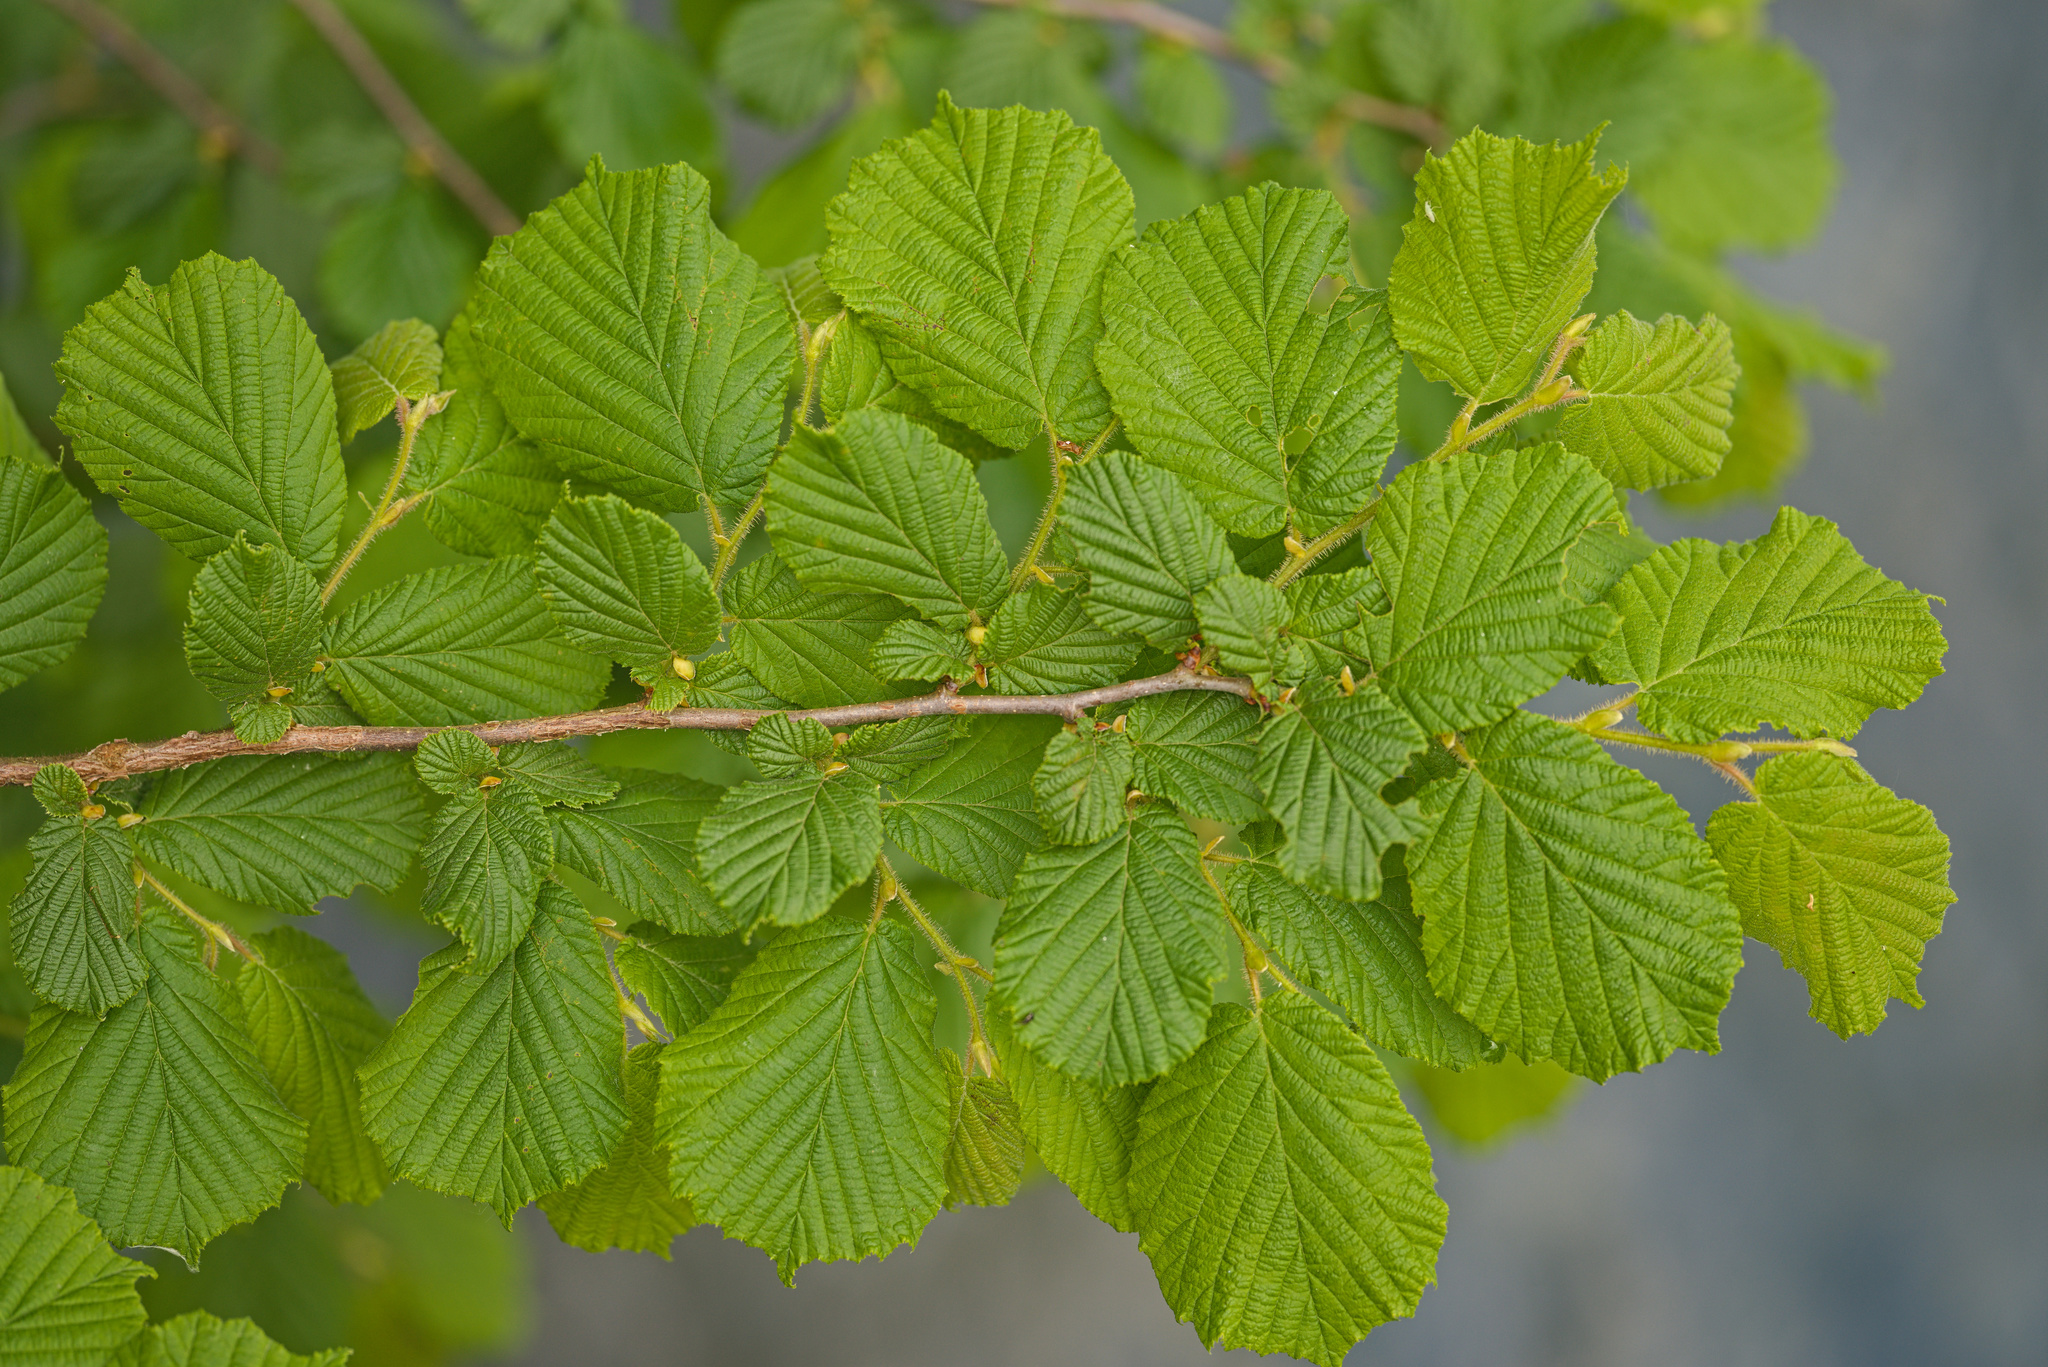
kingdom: Plantae
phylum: Tracheophyta
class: Magnoliopsida
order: Fagales
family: Betulaceae
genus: Corylus
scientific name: Corylus avellana
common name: European hazel
